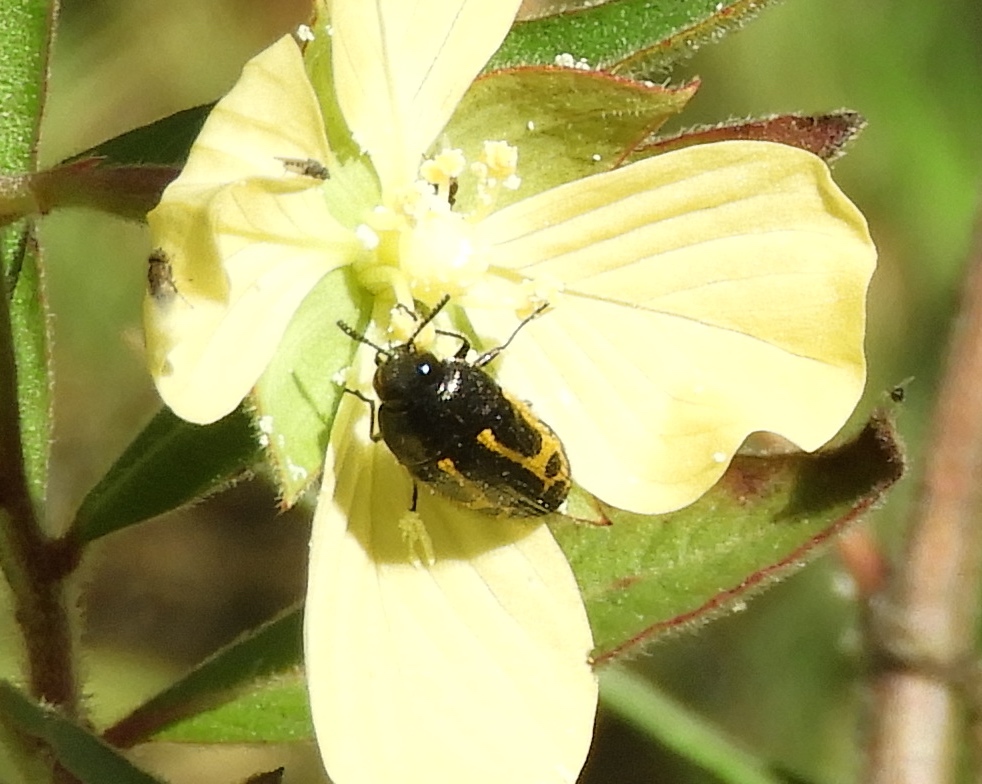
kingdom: Animalia
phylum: Arthropoda
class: Insecta
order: Coleoptera
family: Buprestidae
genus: Acmaeodera
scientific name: Acmaeodera scalaris
